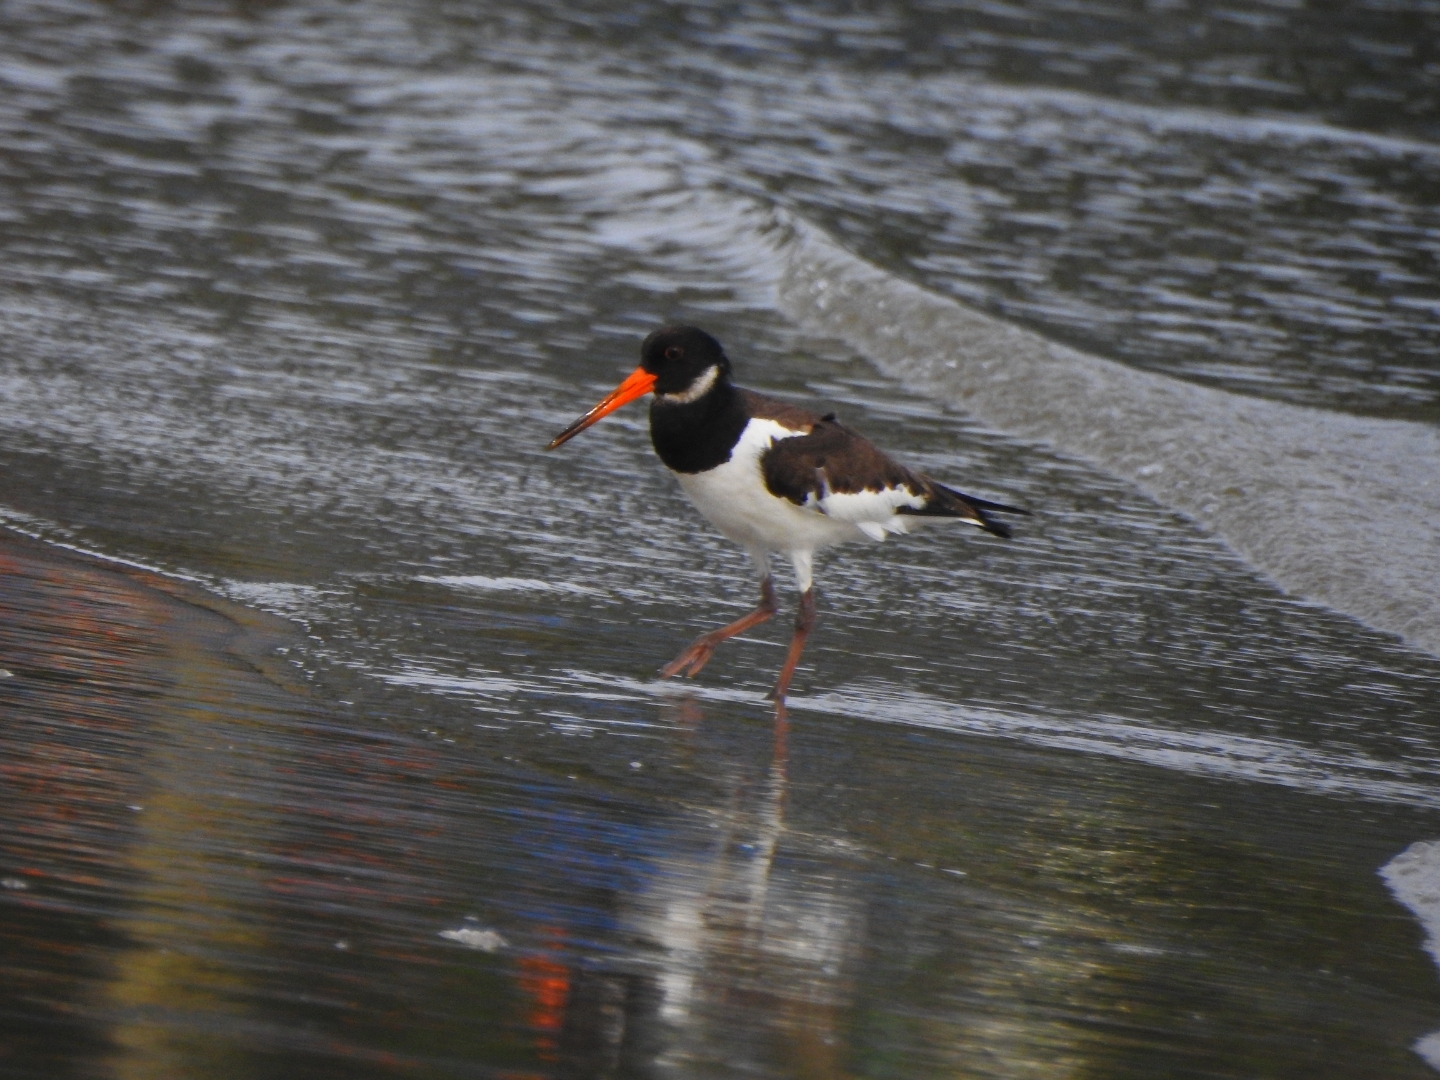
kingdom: Animalia
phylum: Chordata
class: Aves
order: Charadriiformes
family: Haematopodidae
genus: Haematopus
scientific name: Haematopus ostralegus
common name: Eurasian oystercatcher
